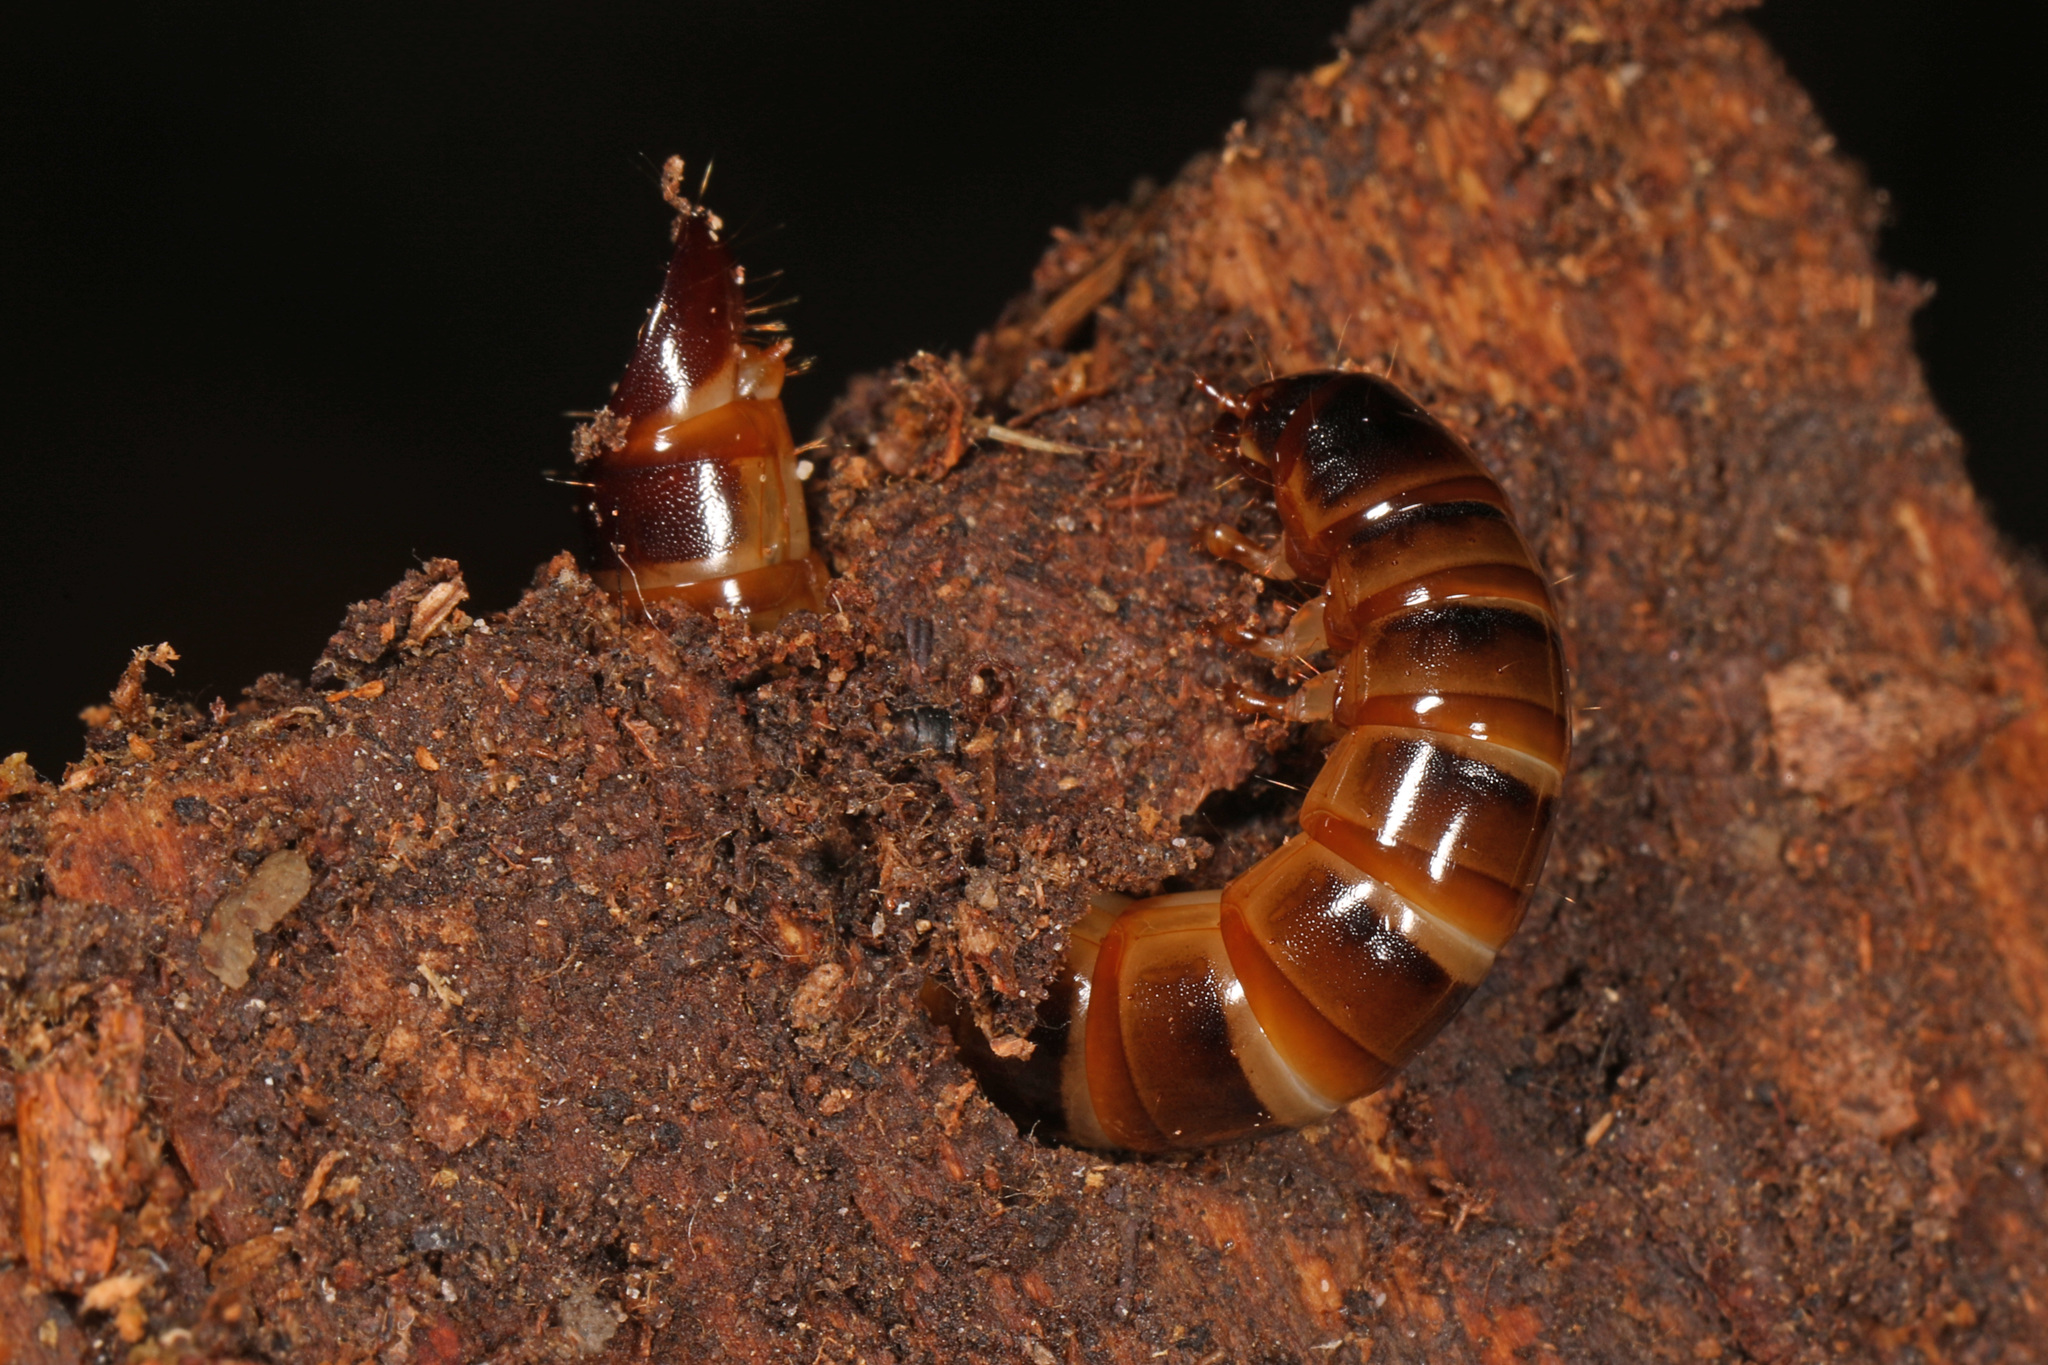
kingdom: Animalia
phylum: Arthropoda
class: Insecta
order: Coleoptera
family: Tenebrionidae
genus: Meracantha
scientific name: Meracantha contracta
